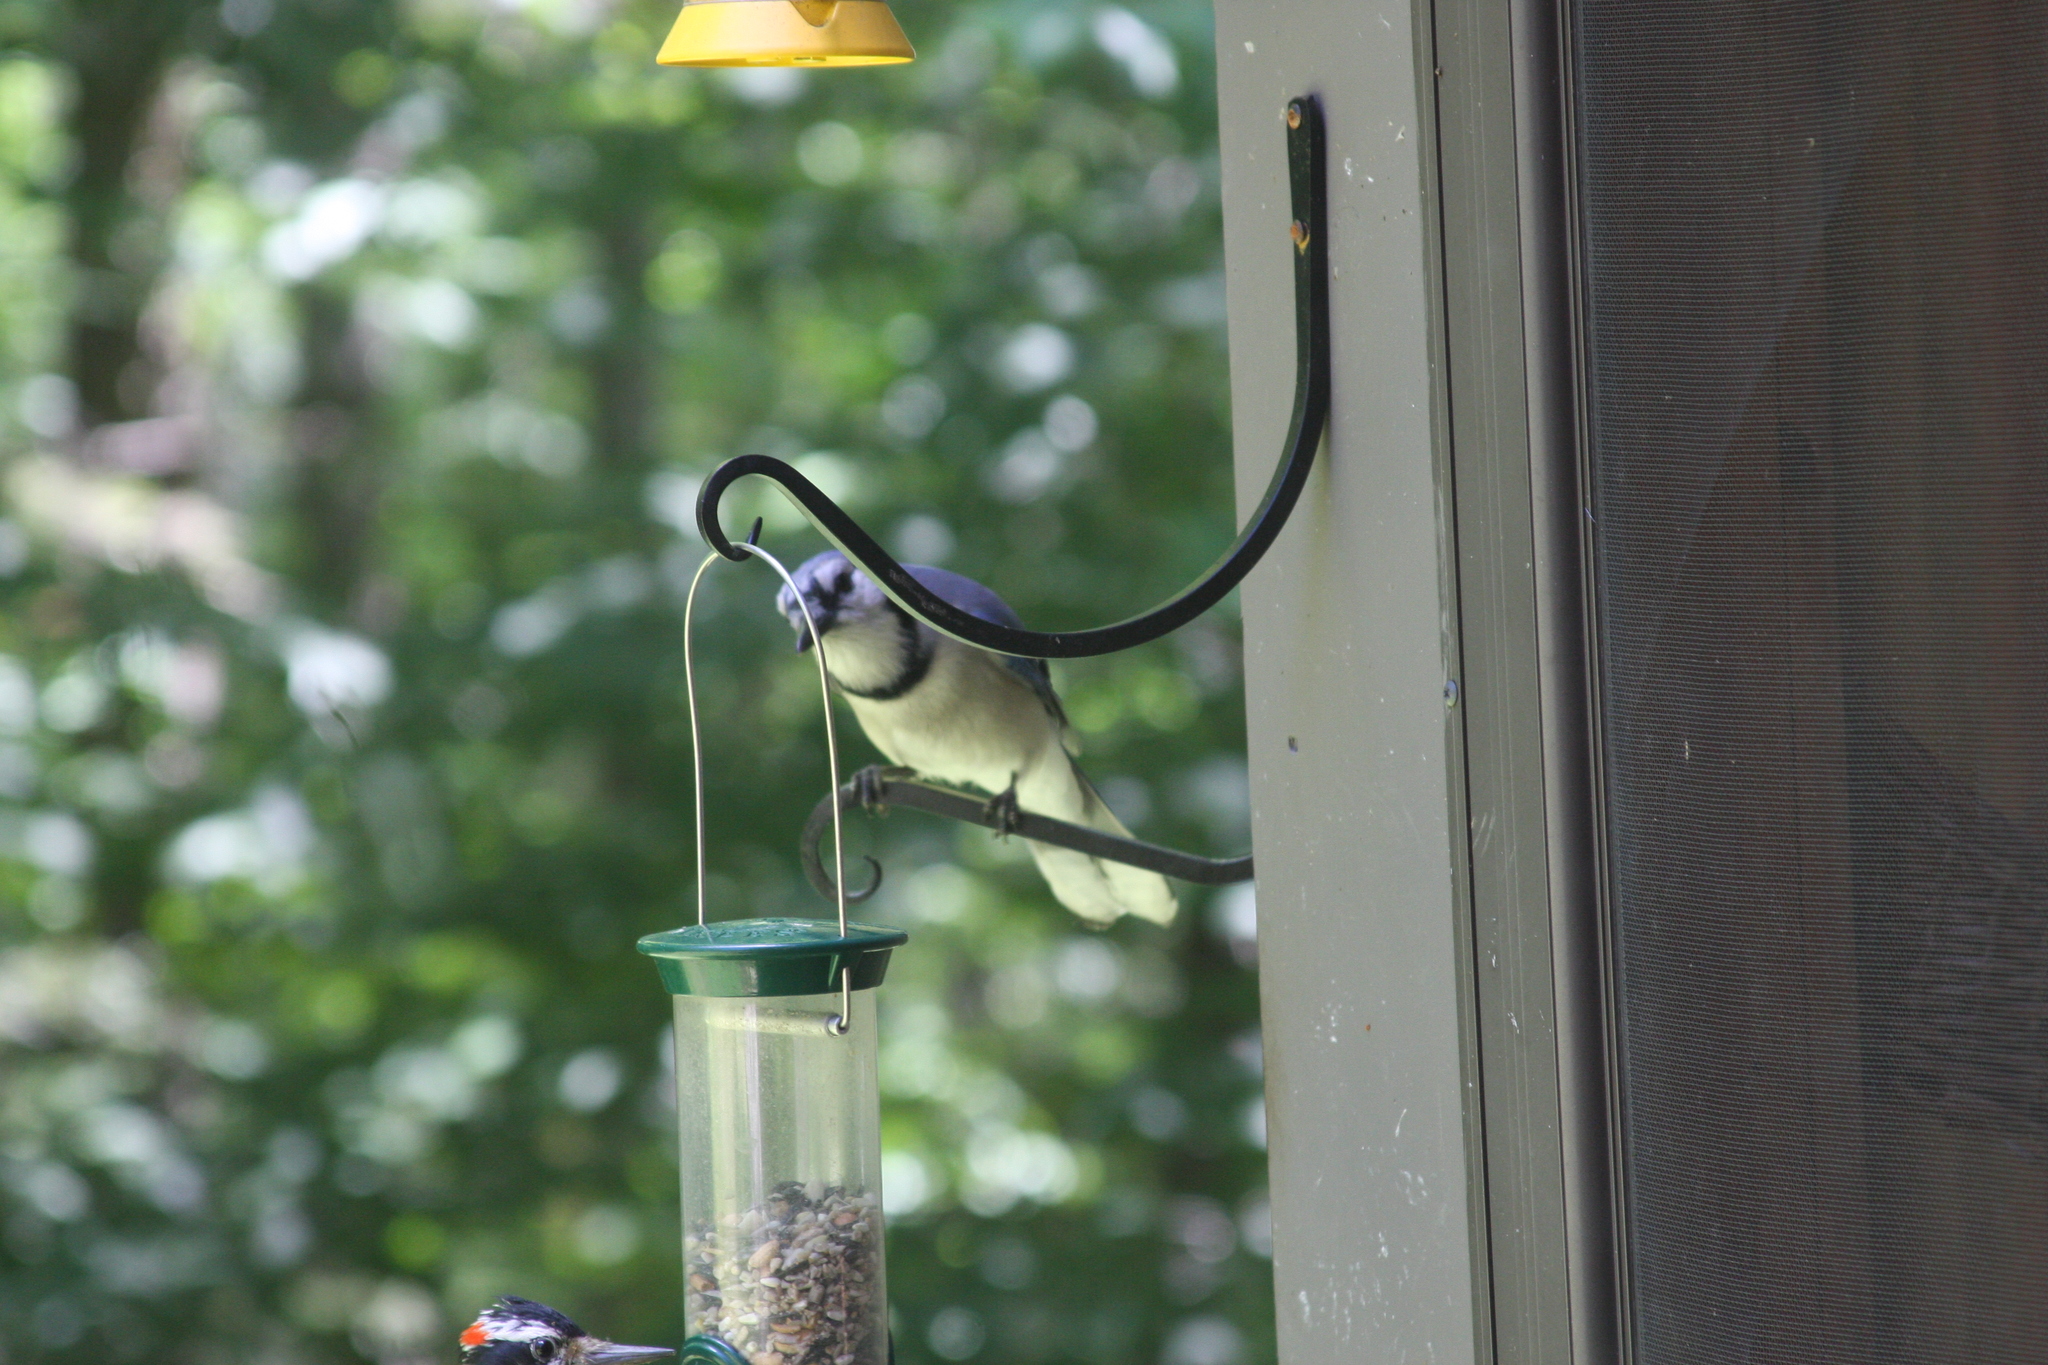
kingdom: Animalia
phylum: Chordata
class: Aves
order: Passeriformes
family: Corvidae
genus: Cyanocitta
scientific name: Cyanocitta cristata
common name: Blue jay
